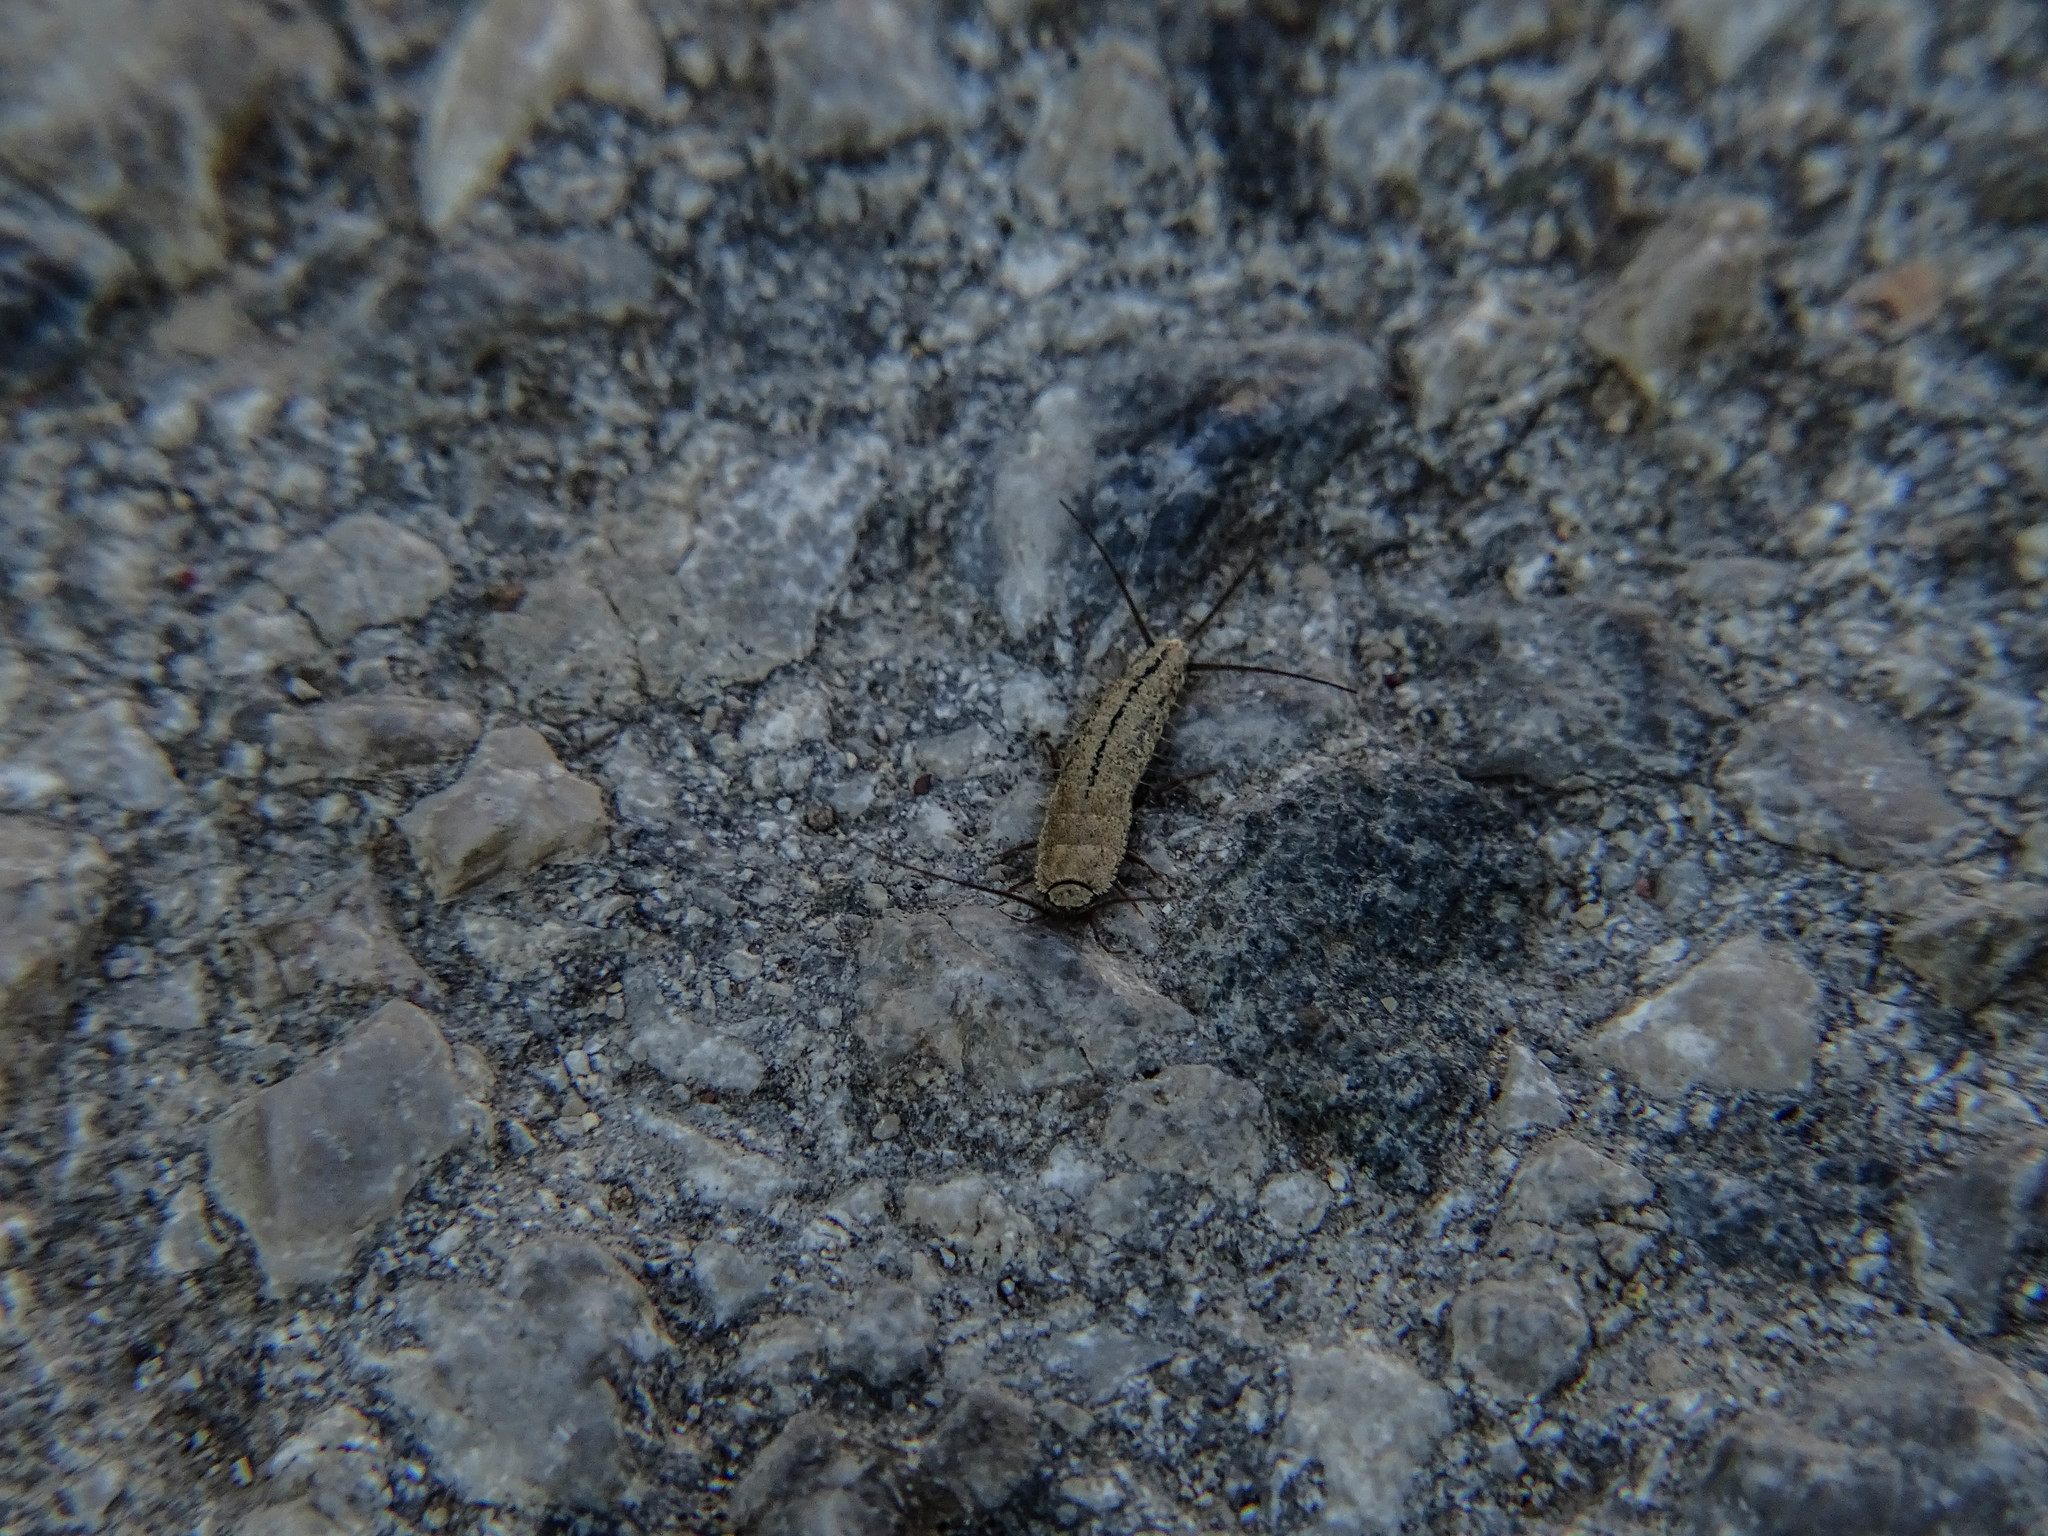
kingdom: Animalia
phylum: Arthropoda
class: Insecta
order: Zygentoma
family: Lepismatidae
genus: Ctenolepisma
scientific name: Ctenolepisma ciliata
